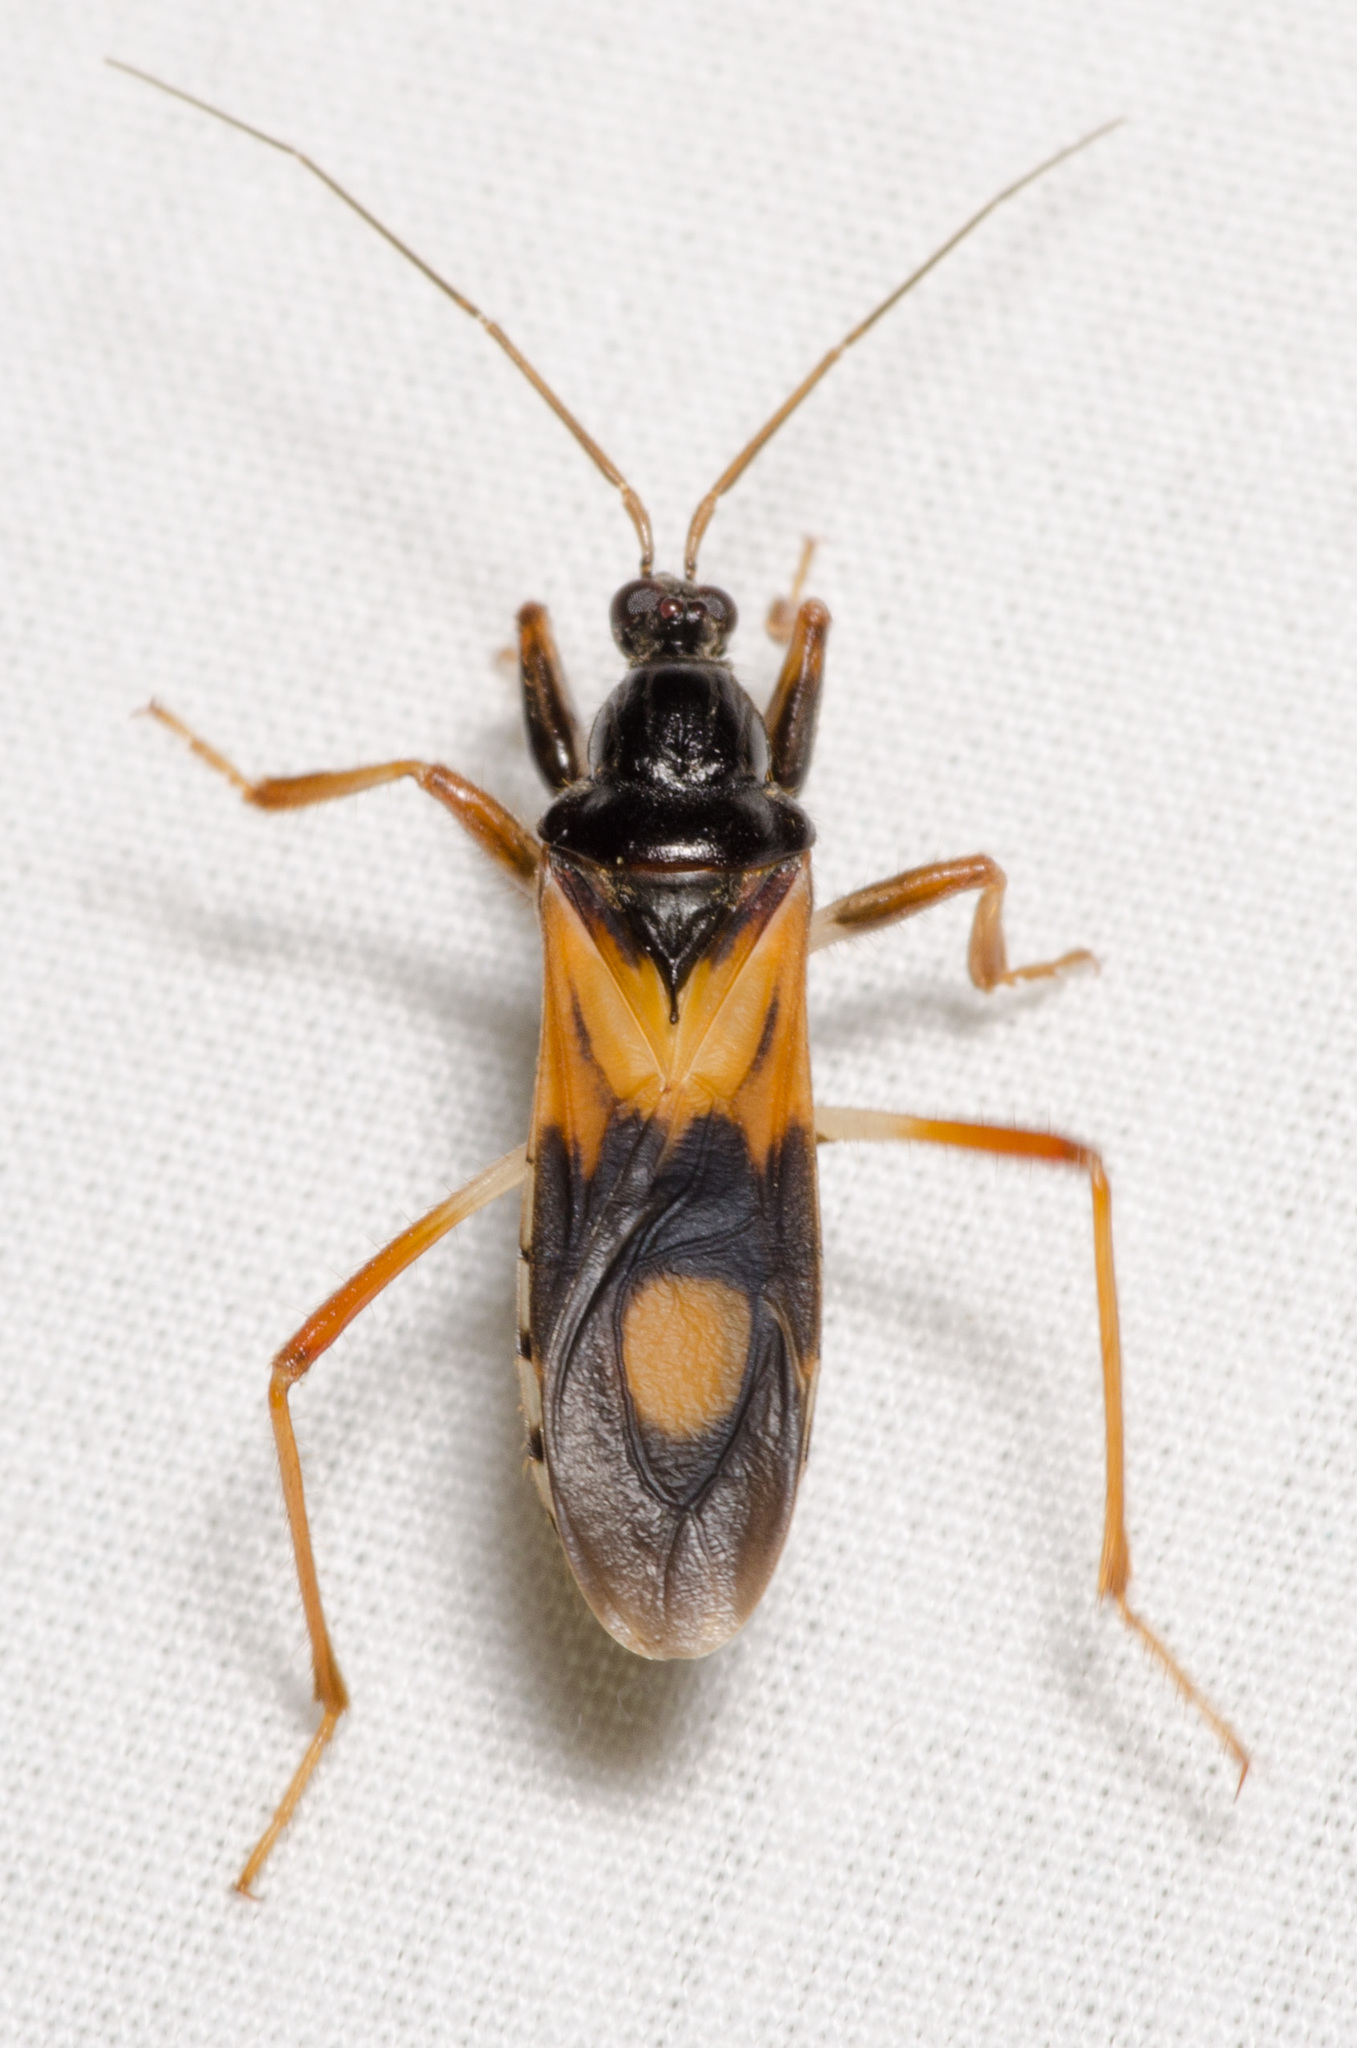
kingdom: Animalia
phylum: Arthropoda
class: Insecta
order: Hemiptera
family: Reduviidae
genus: Rasahus
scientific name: Rasahus biguttatus
